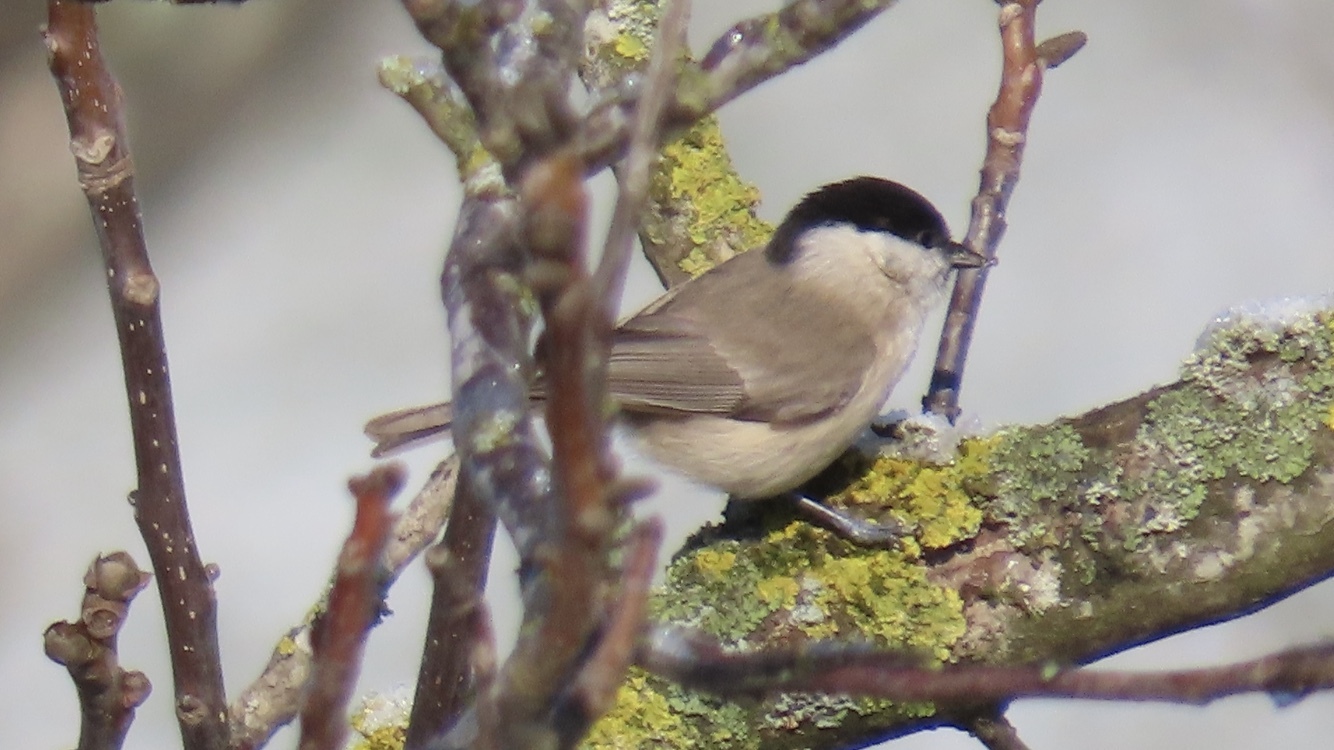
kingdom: Animalia
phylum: Chordata
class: Aves
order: Passeriformes
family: Paridae
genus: Poecile
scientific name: Poecile palustris
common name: Marsh tit
